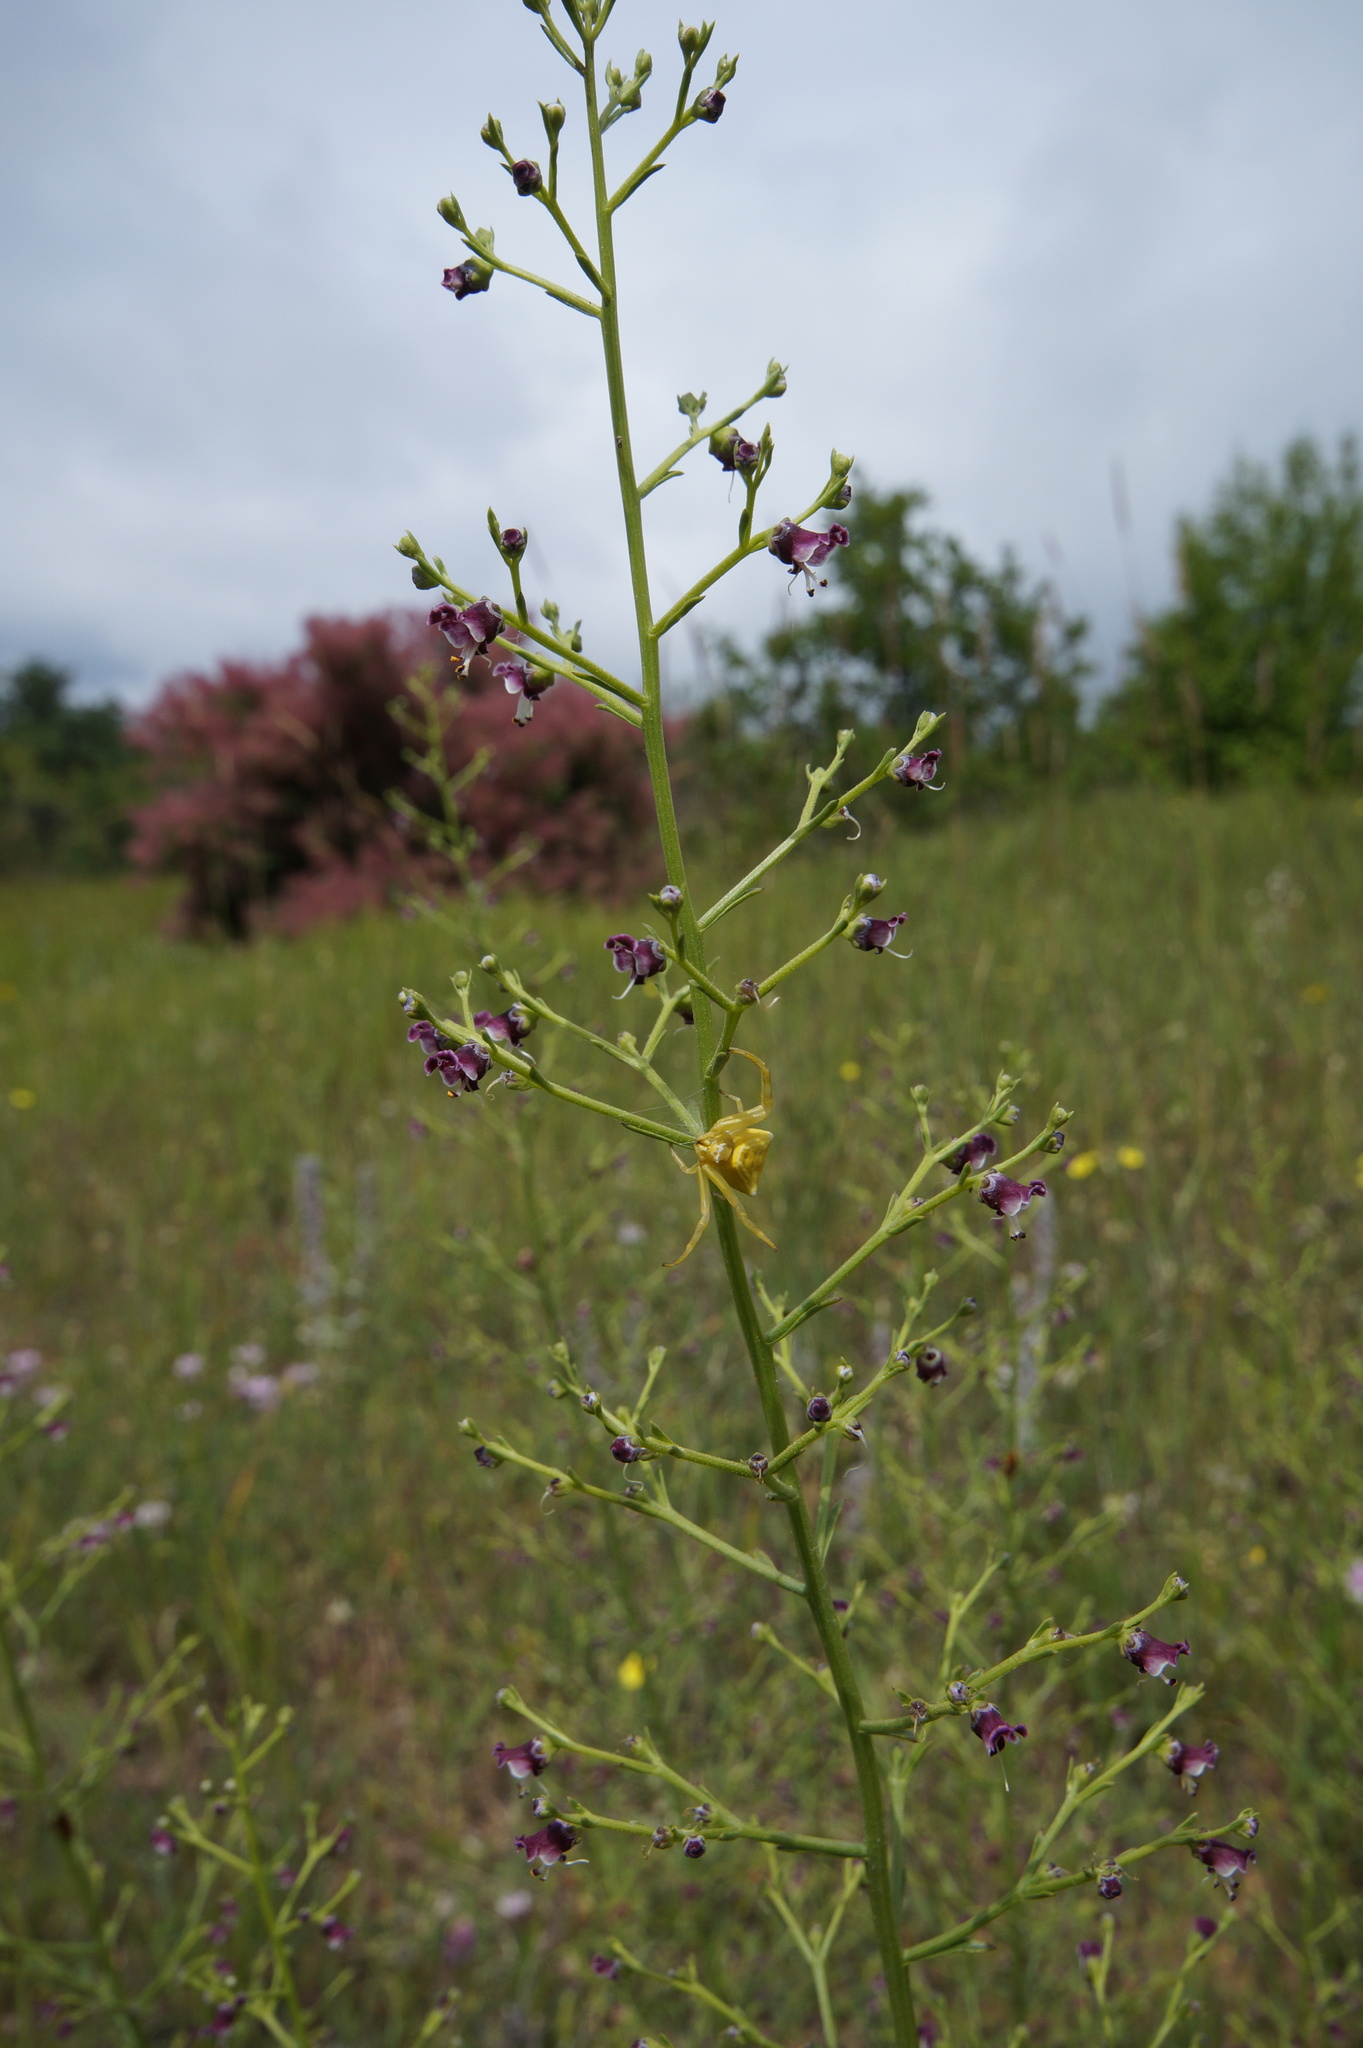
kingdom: Plantae
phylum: Tracheophyta
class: Magnoliopsida
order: Lamiales
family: Scrophulariaceae
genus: Scrophularia
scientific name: Scrophularia canina
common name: French figwort
